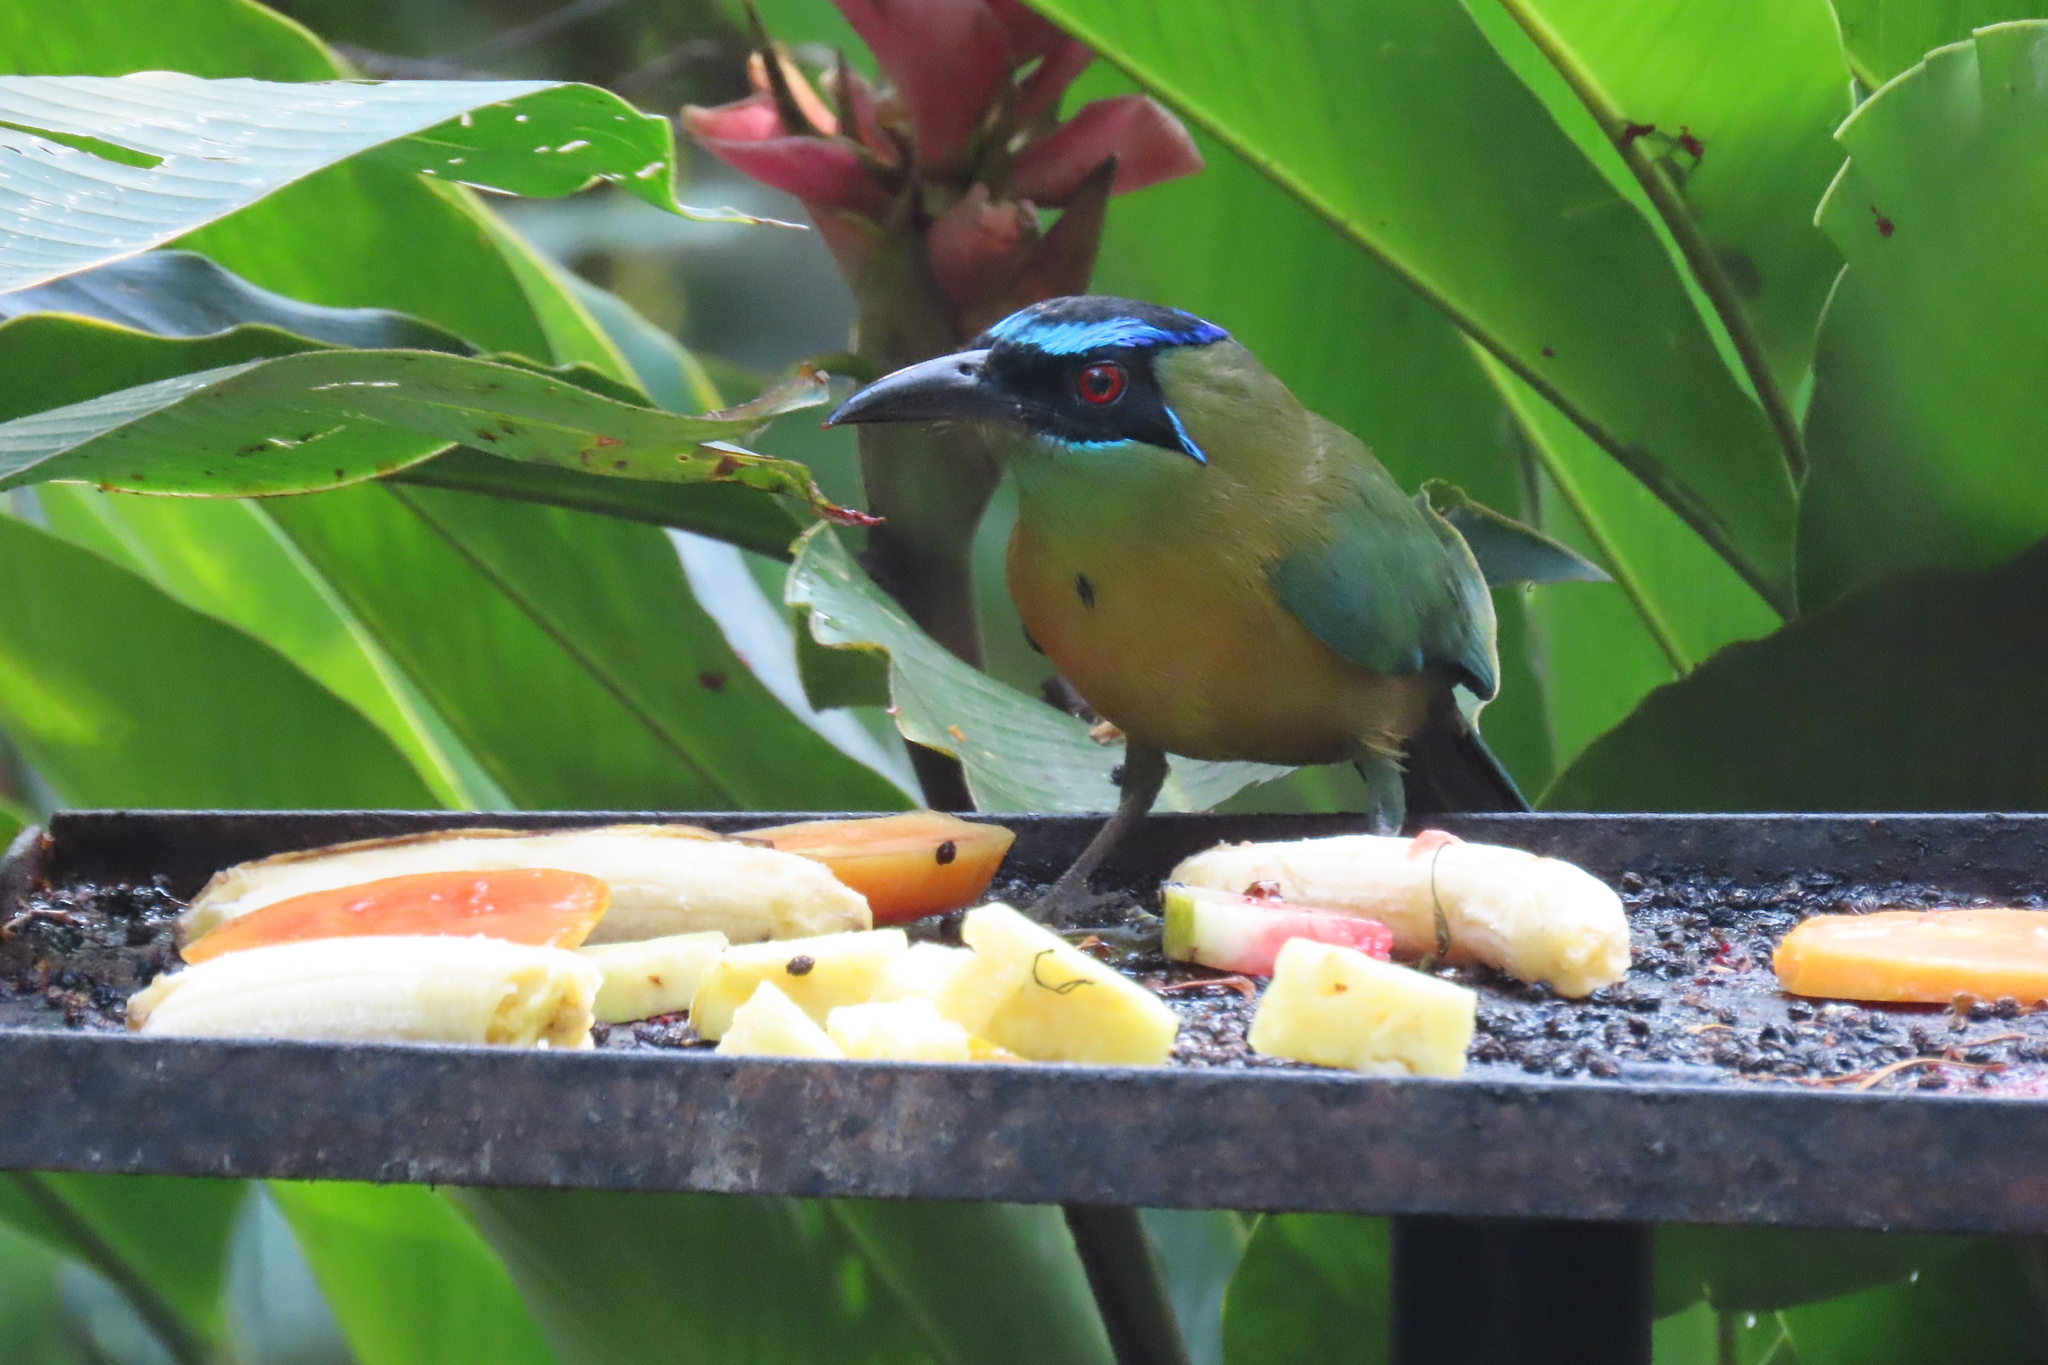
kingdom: Animalia
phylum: Chordata
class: Aves
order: Coraciiformes
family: Momotidae
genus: Momotus
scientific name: Momotus lessonii
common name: Lesson's motmot
